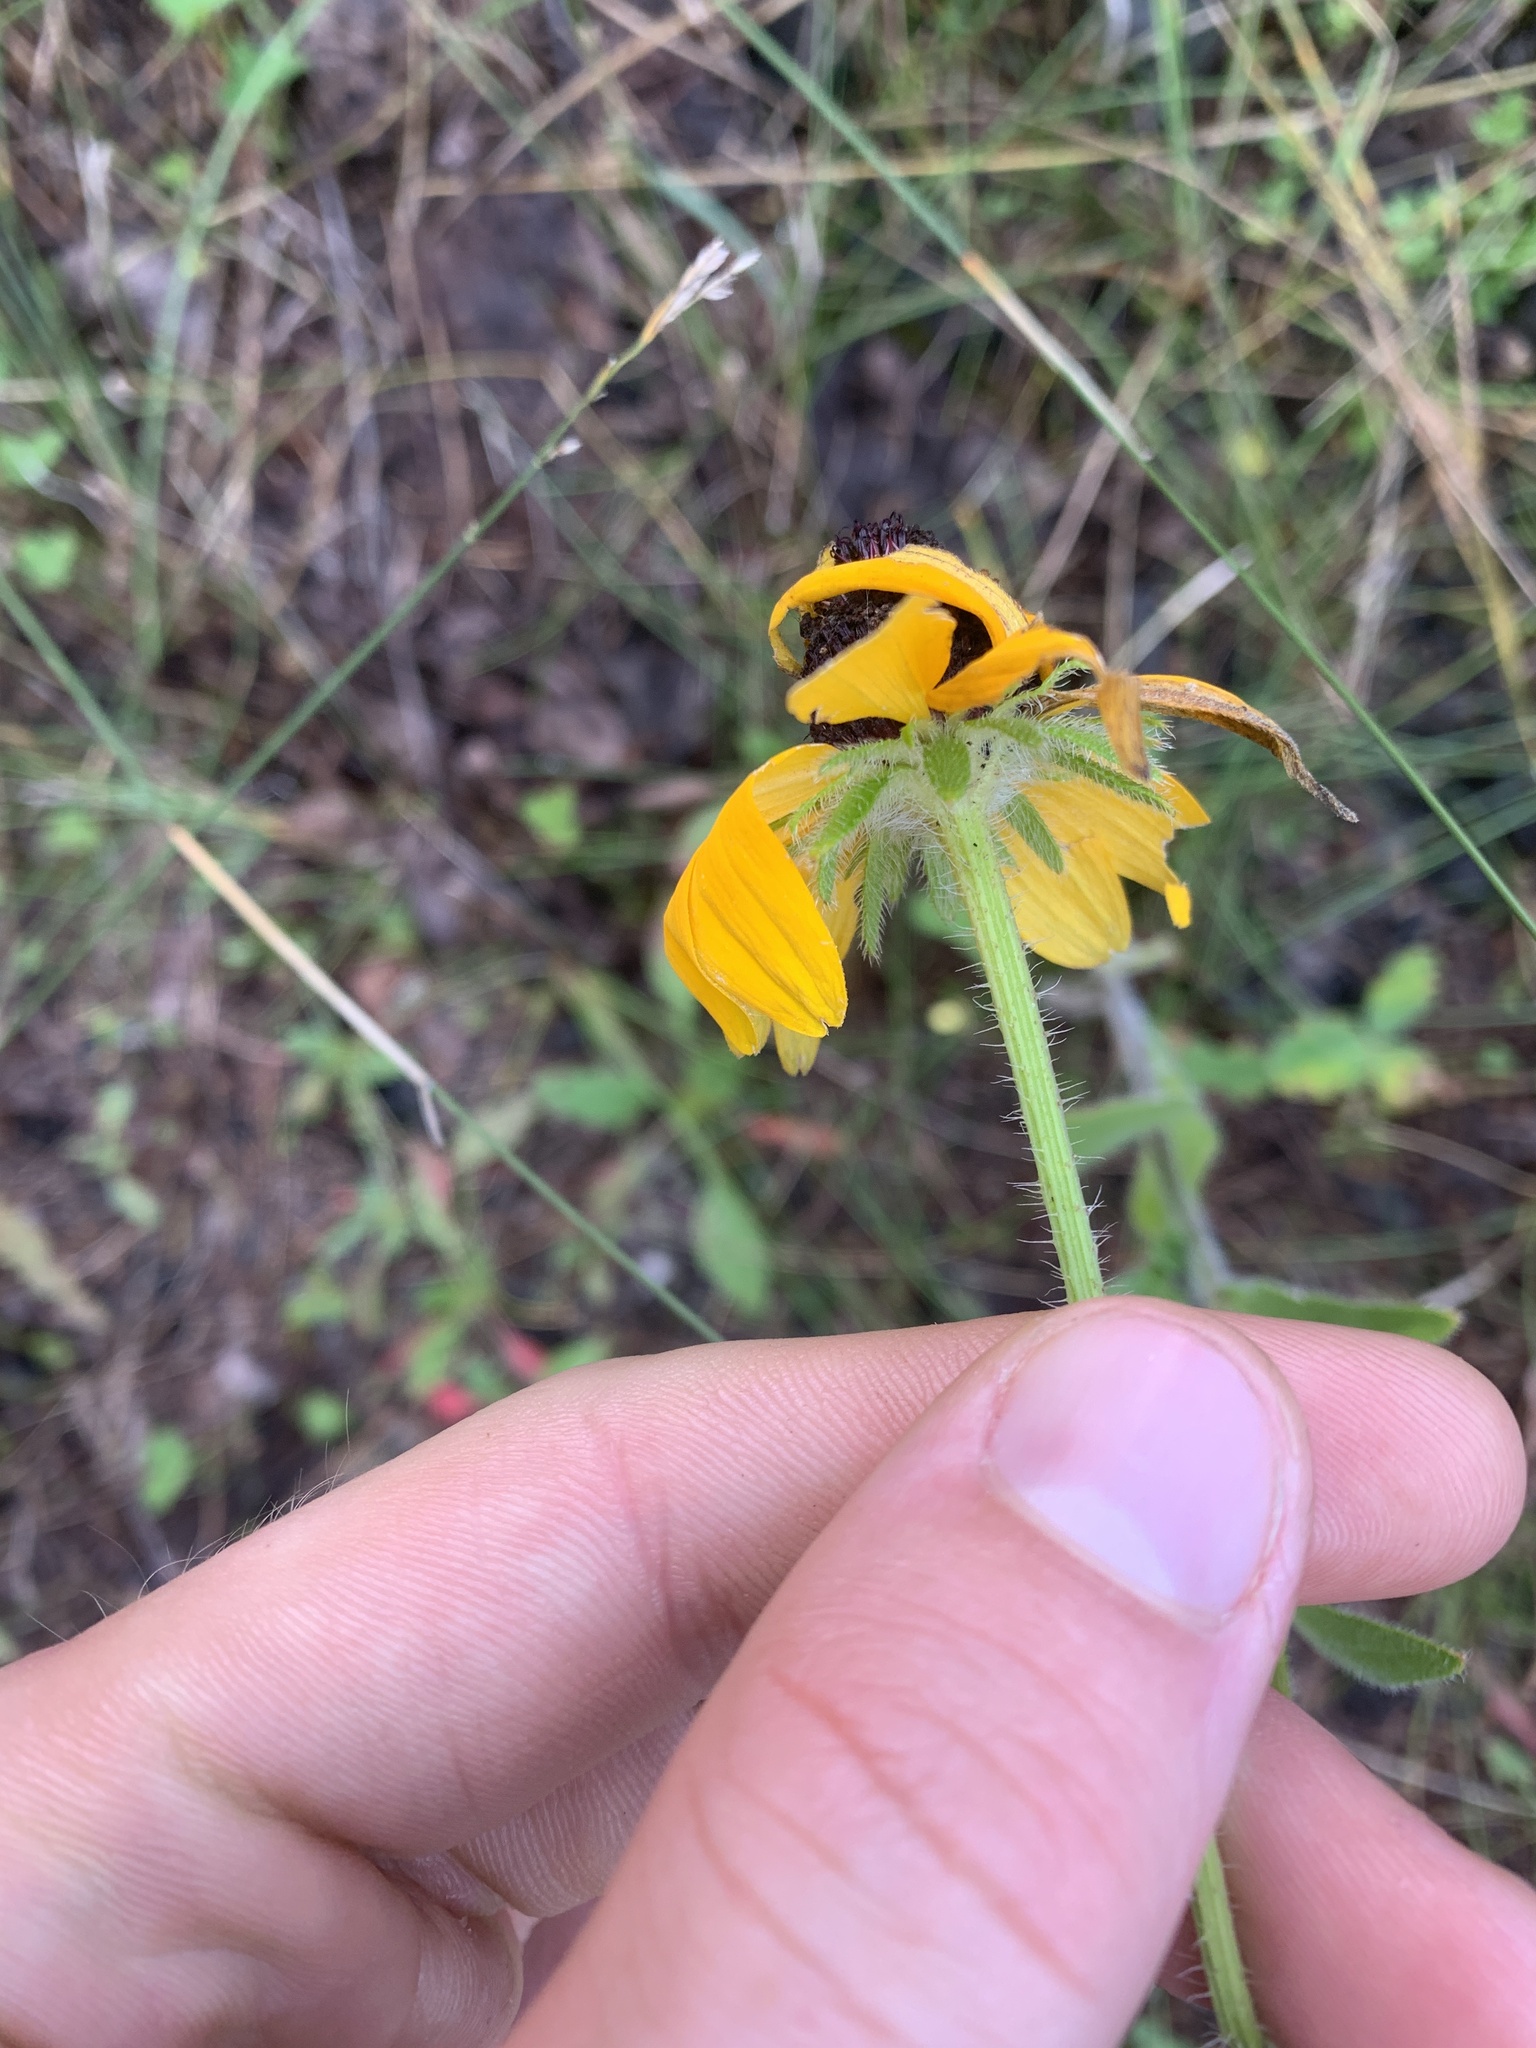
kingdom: Plantae
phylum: Tracheophyta
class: Magnoliopsida
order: Asterales
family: Asteraceae
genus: Rudbeckia
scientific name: Rudbeckia hirta
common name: Black-eyed-susan
